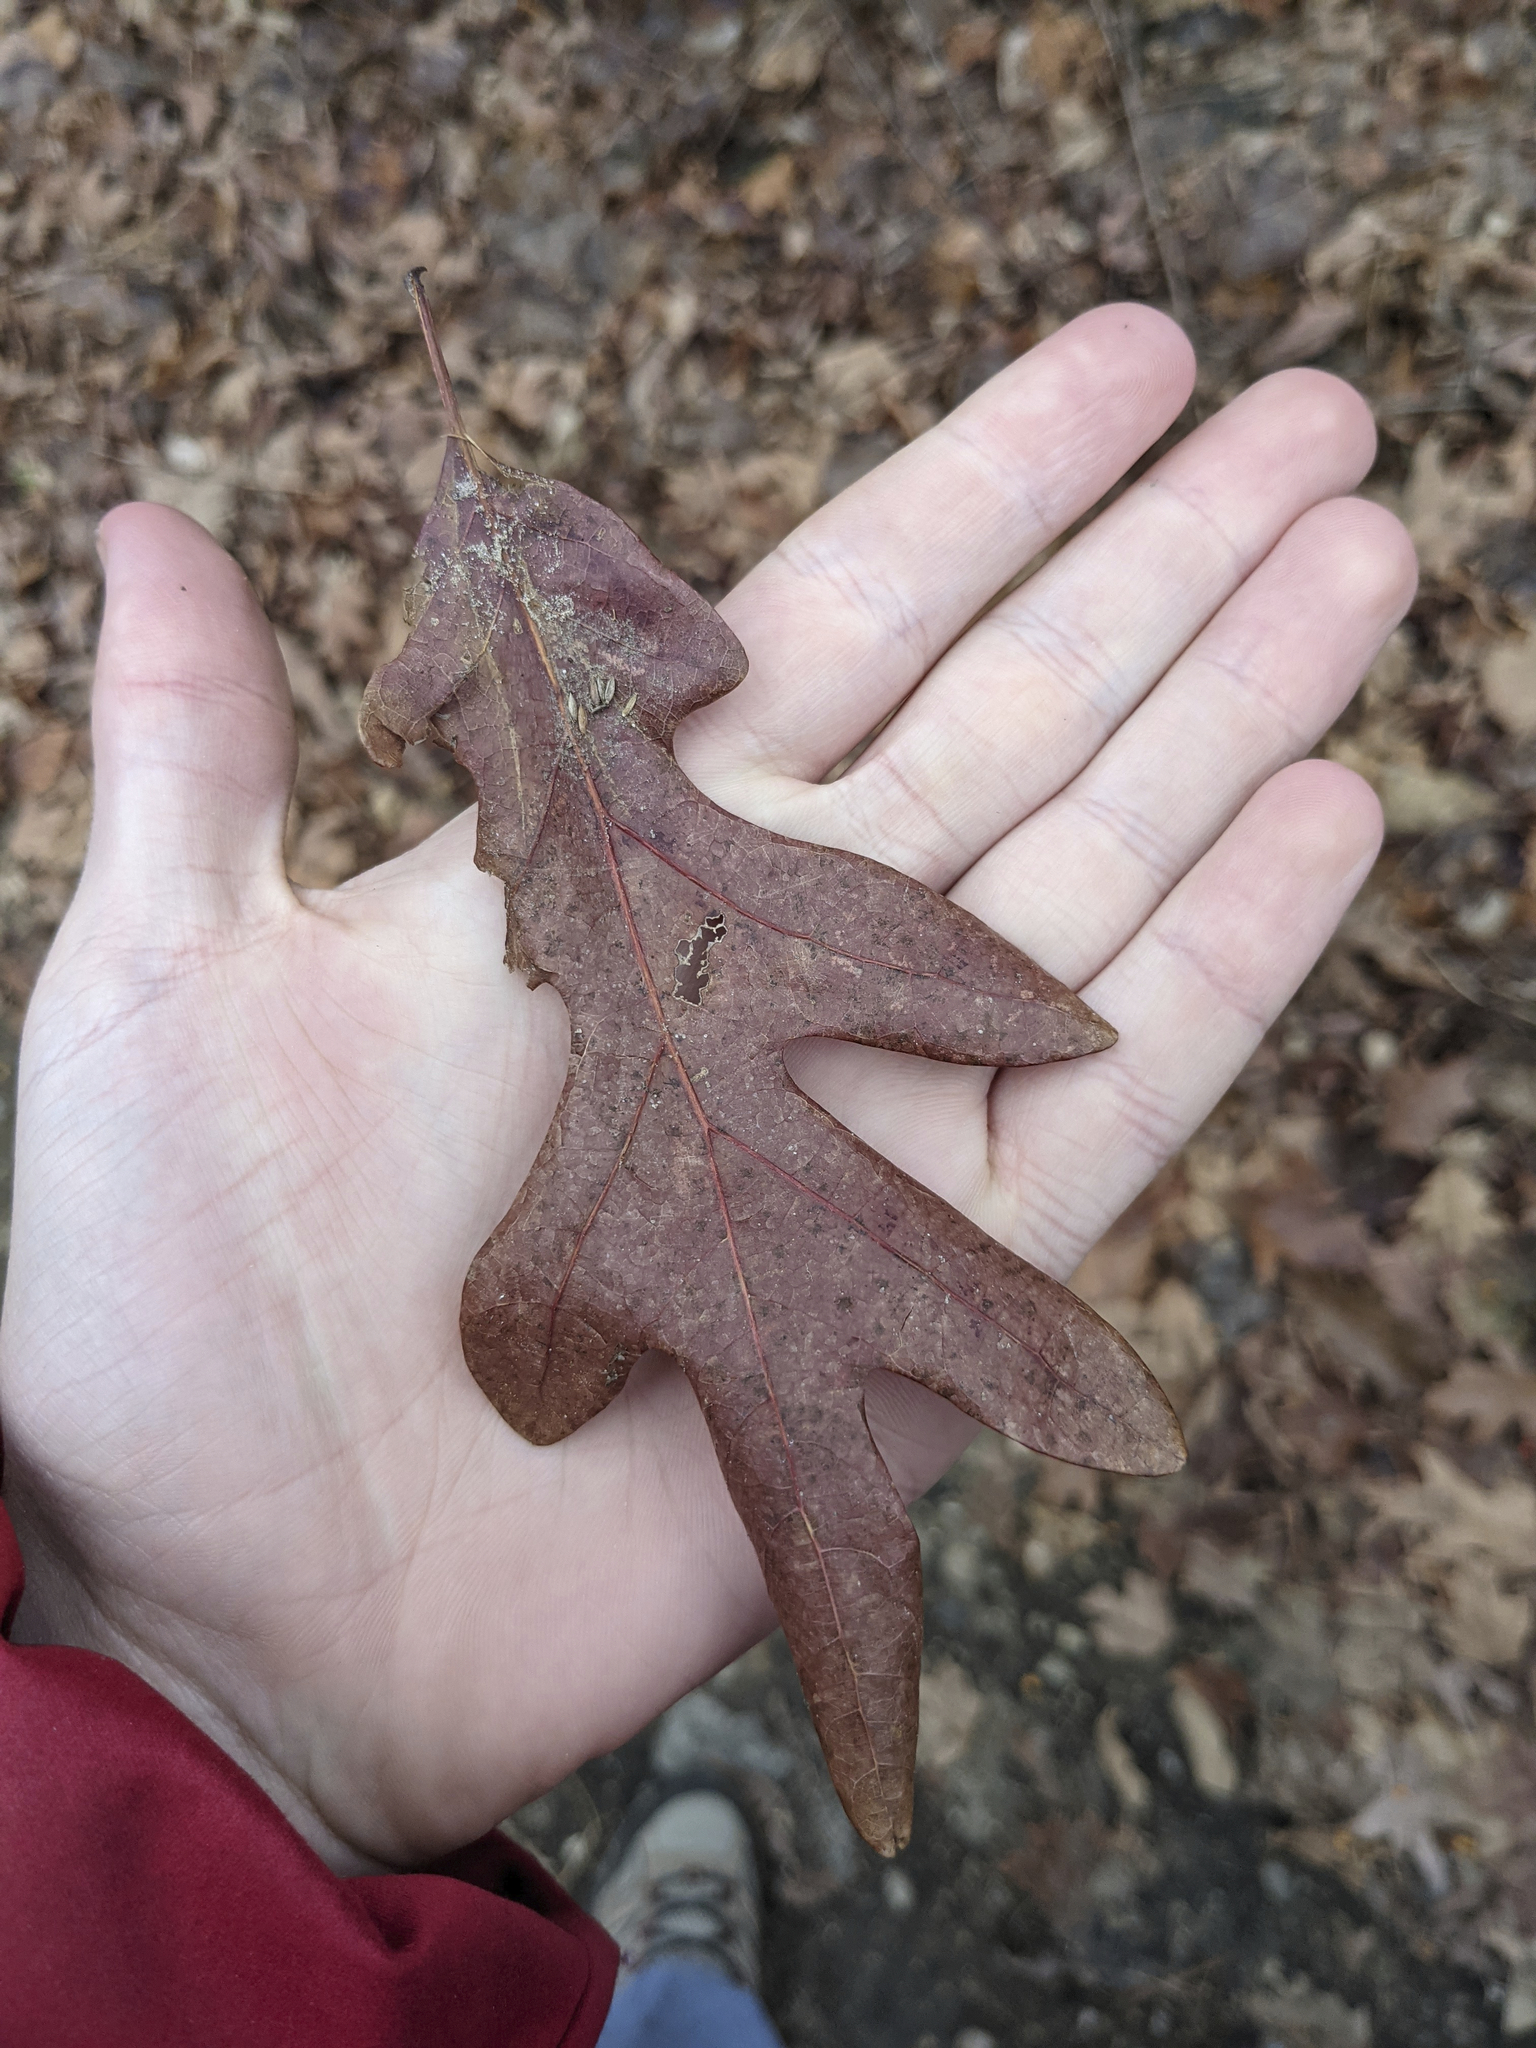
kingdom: Plantae
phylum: Tracheophyta
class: Magnoliopsida
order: Fagales
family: Fagaceae
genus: Quercus
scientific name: Quercus alba
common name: White oak
